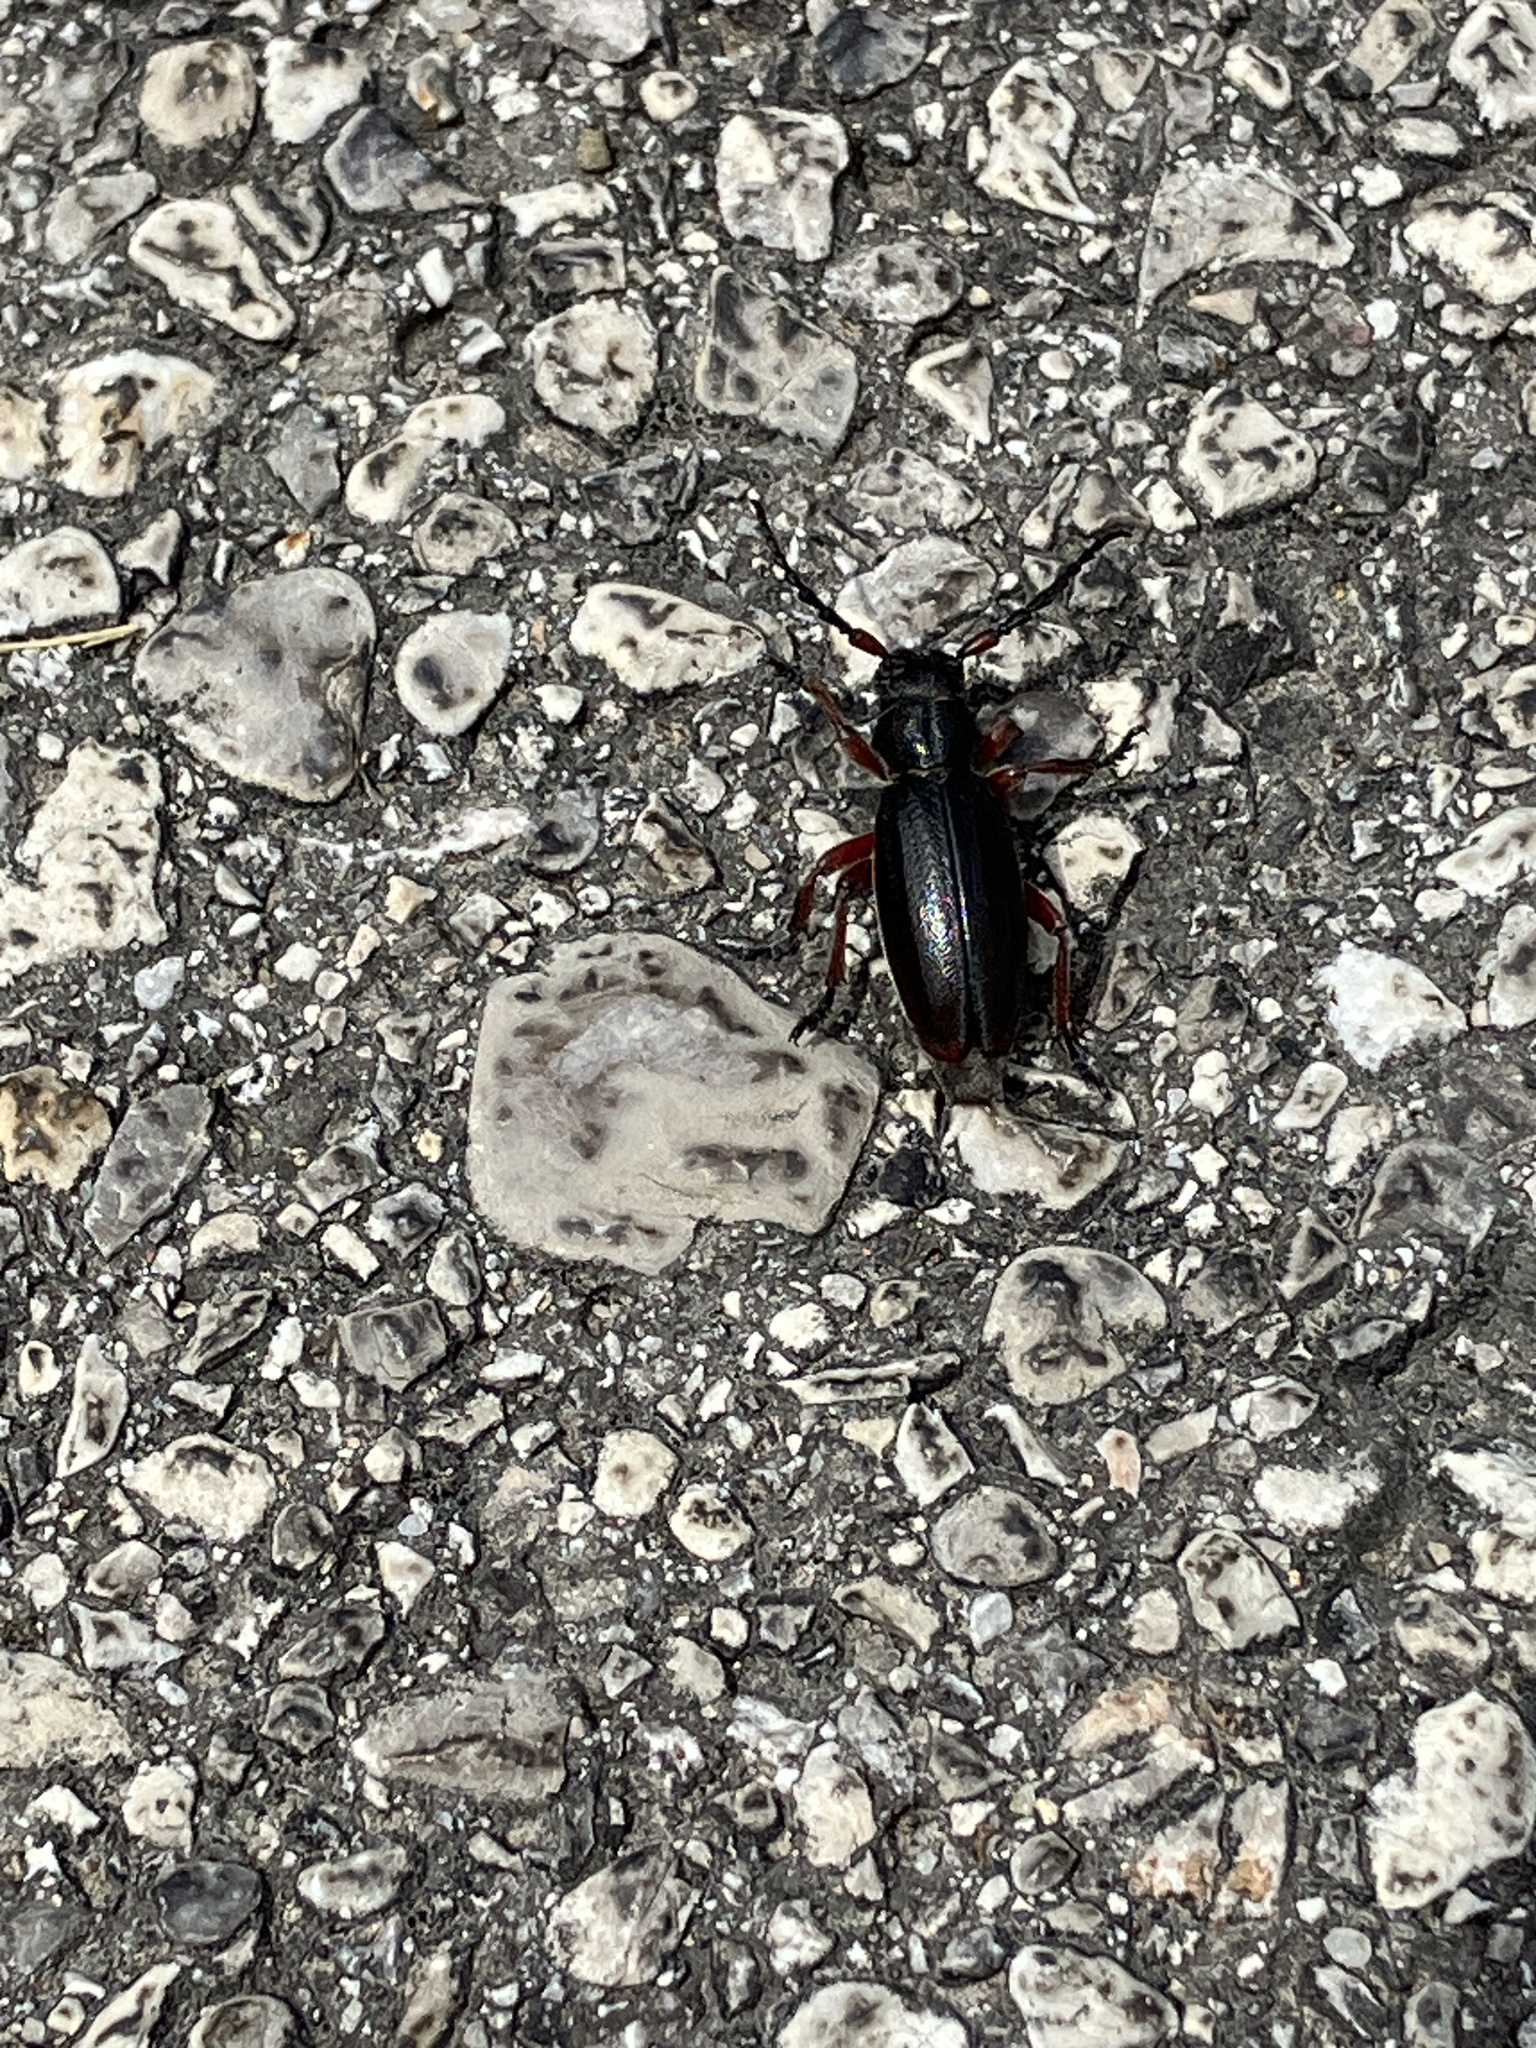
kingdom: Animalia
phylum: Arthropoda
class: Insecta
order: Coleoptera
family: Cerambycidae
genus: Dorcadion
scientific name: Dorcadion fulvum
